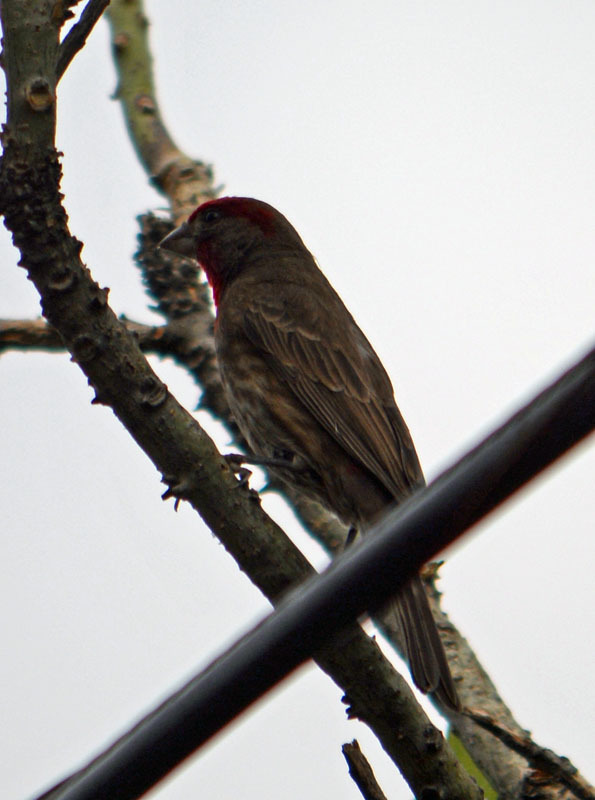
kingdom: Animalia
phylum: Chordata
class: Aves
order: Passeriformes
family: Fringillidae
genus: Haemorhous
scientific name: Haemorhous mexicanus
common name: House finch
